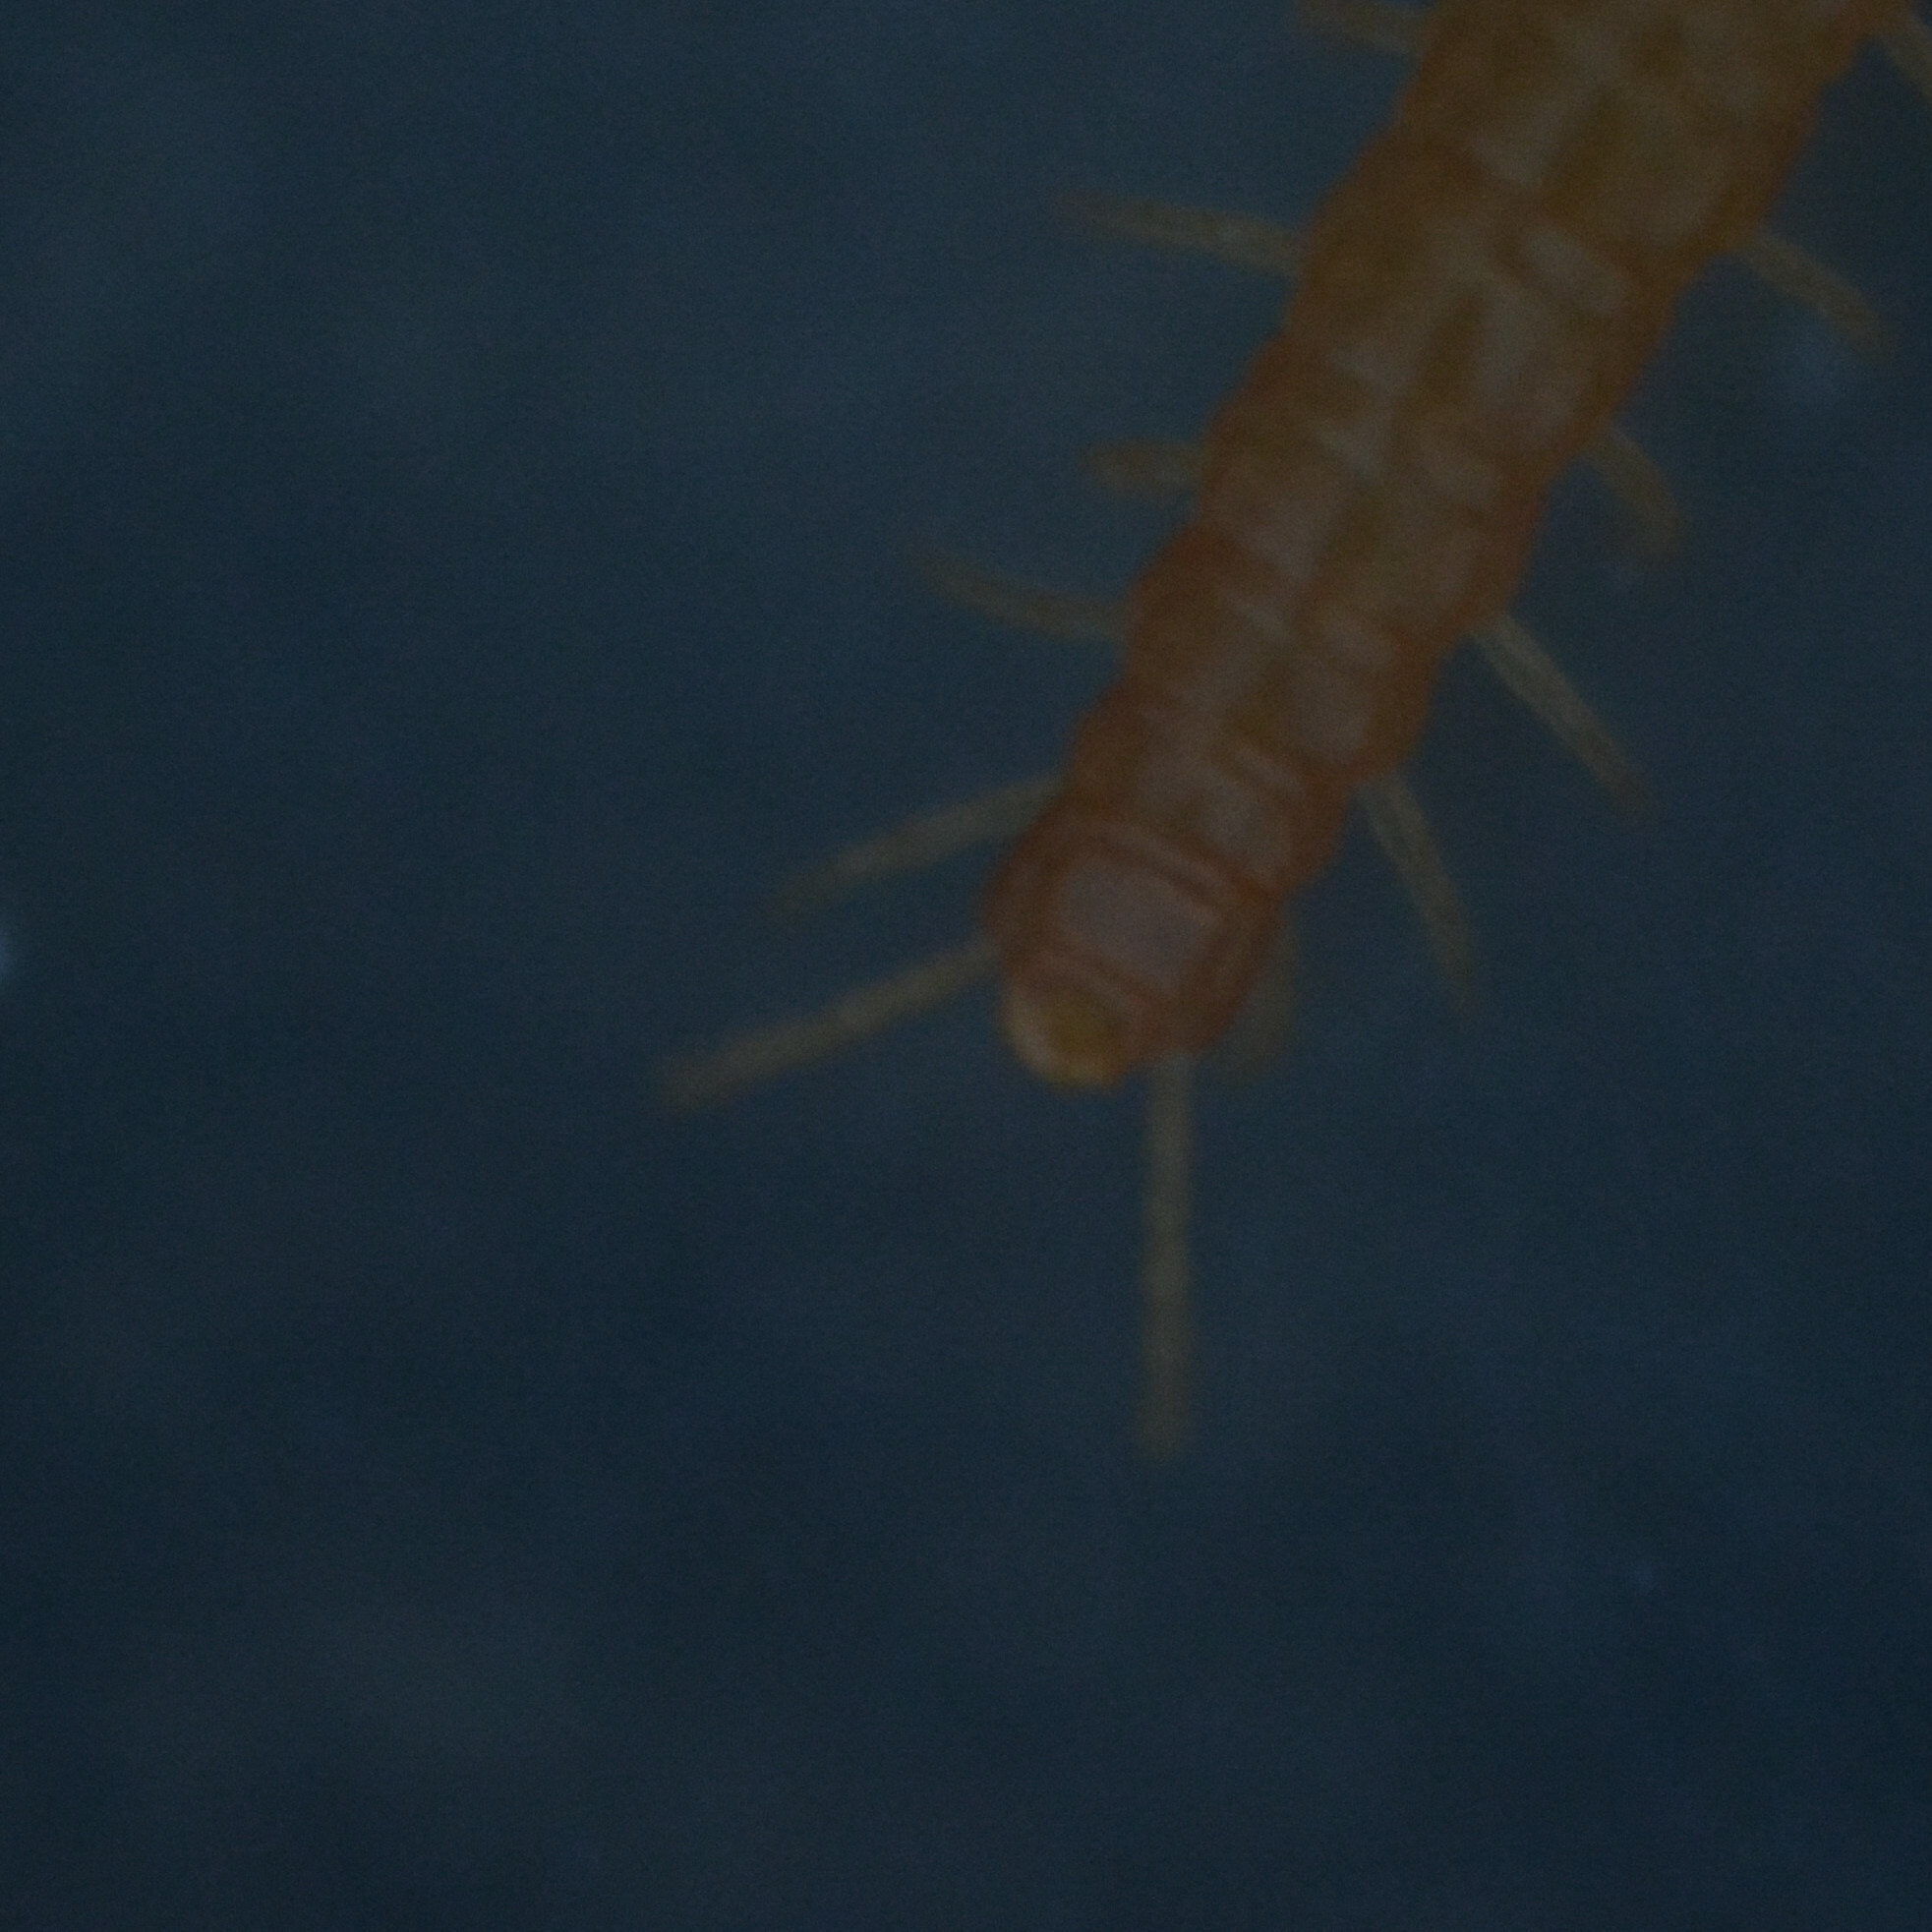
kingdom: Animalia
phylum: Arthropoda
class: Chilopoda
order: Geophilomorpha
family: Himantariidae
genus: Stigmatogaster
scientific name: Stigmatogaster subterranea
